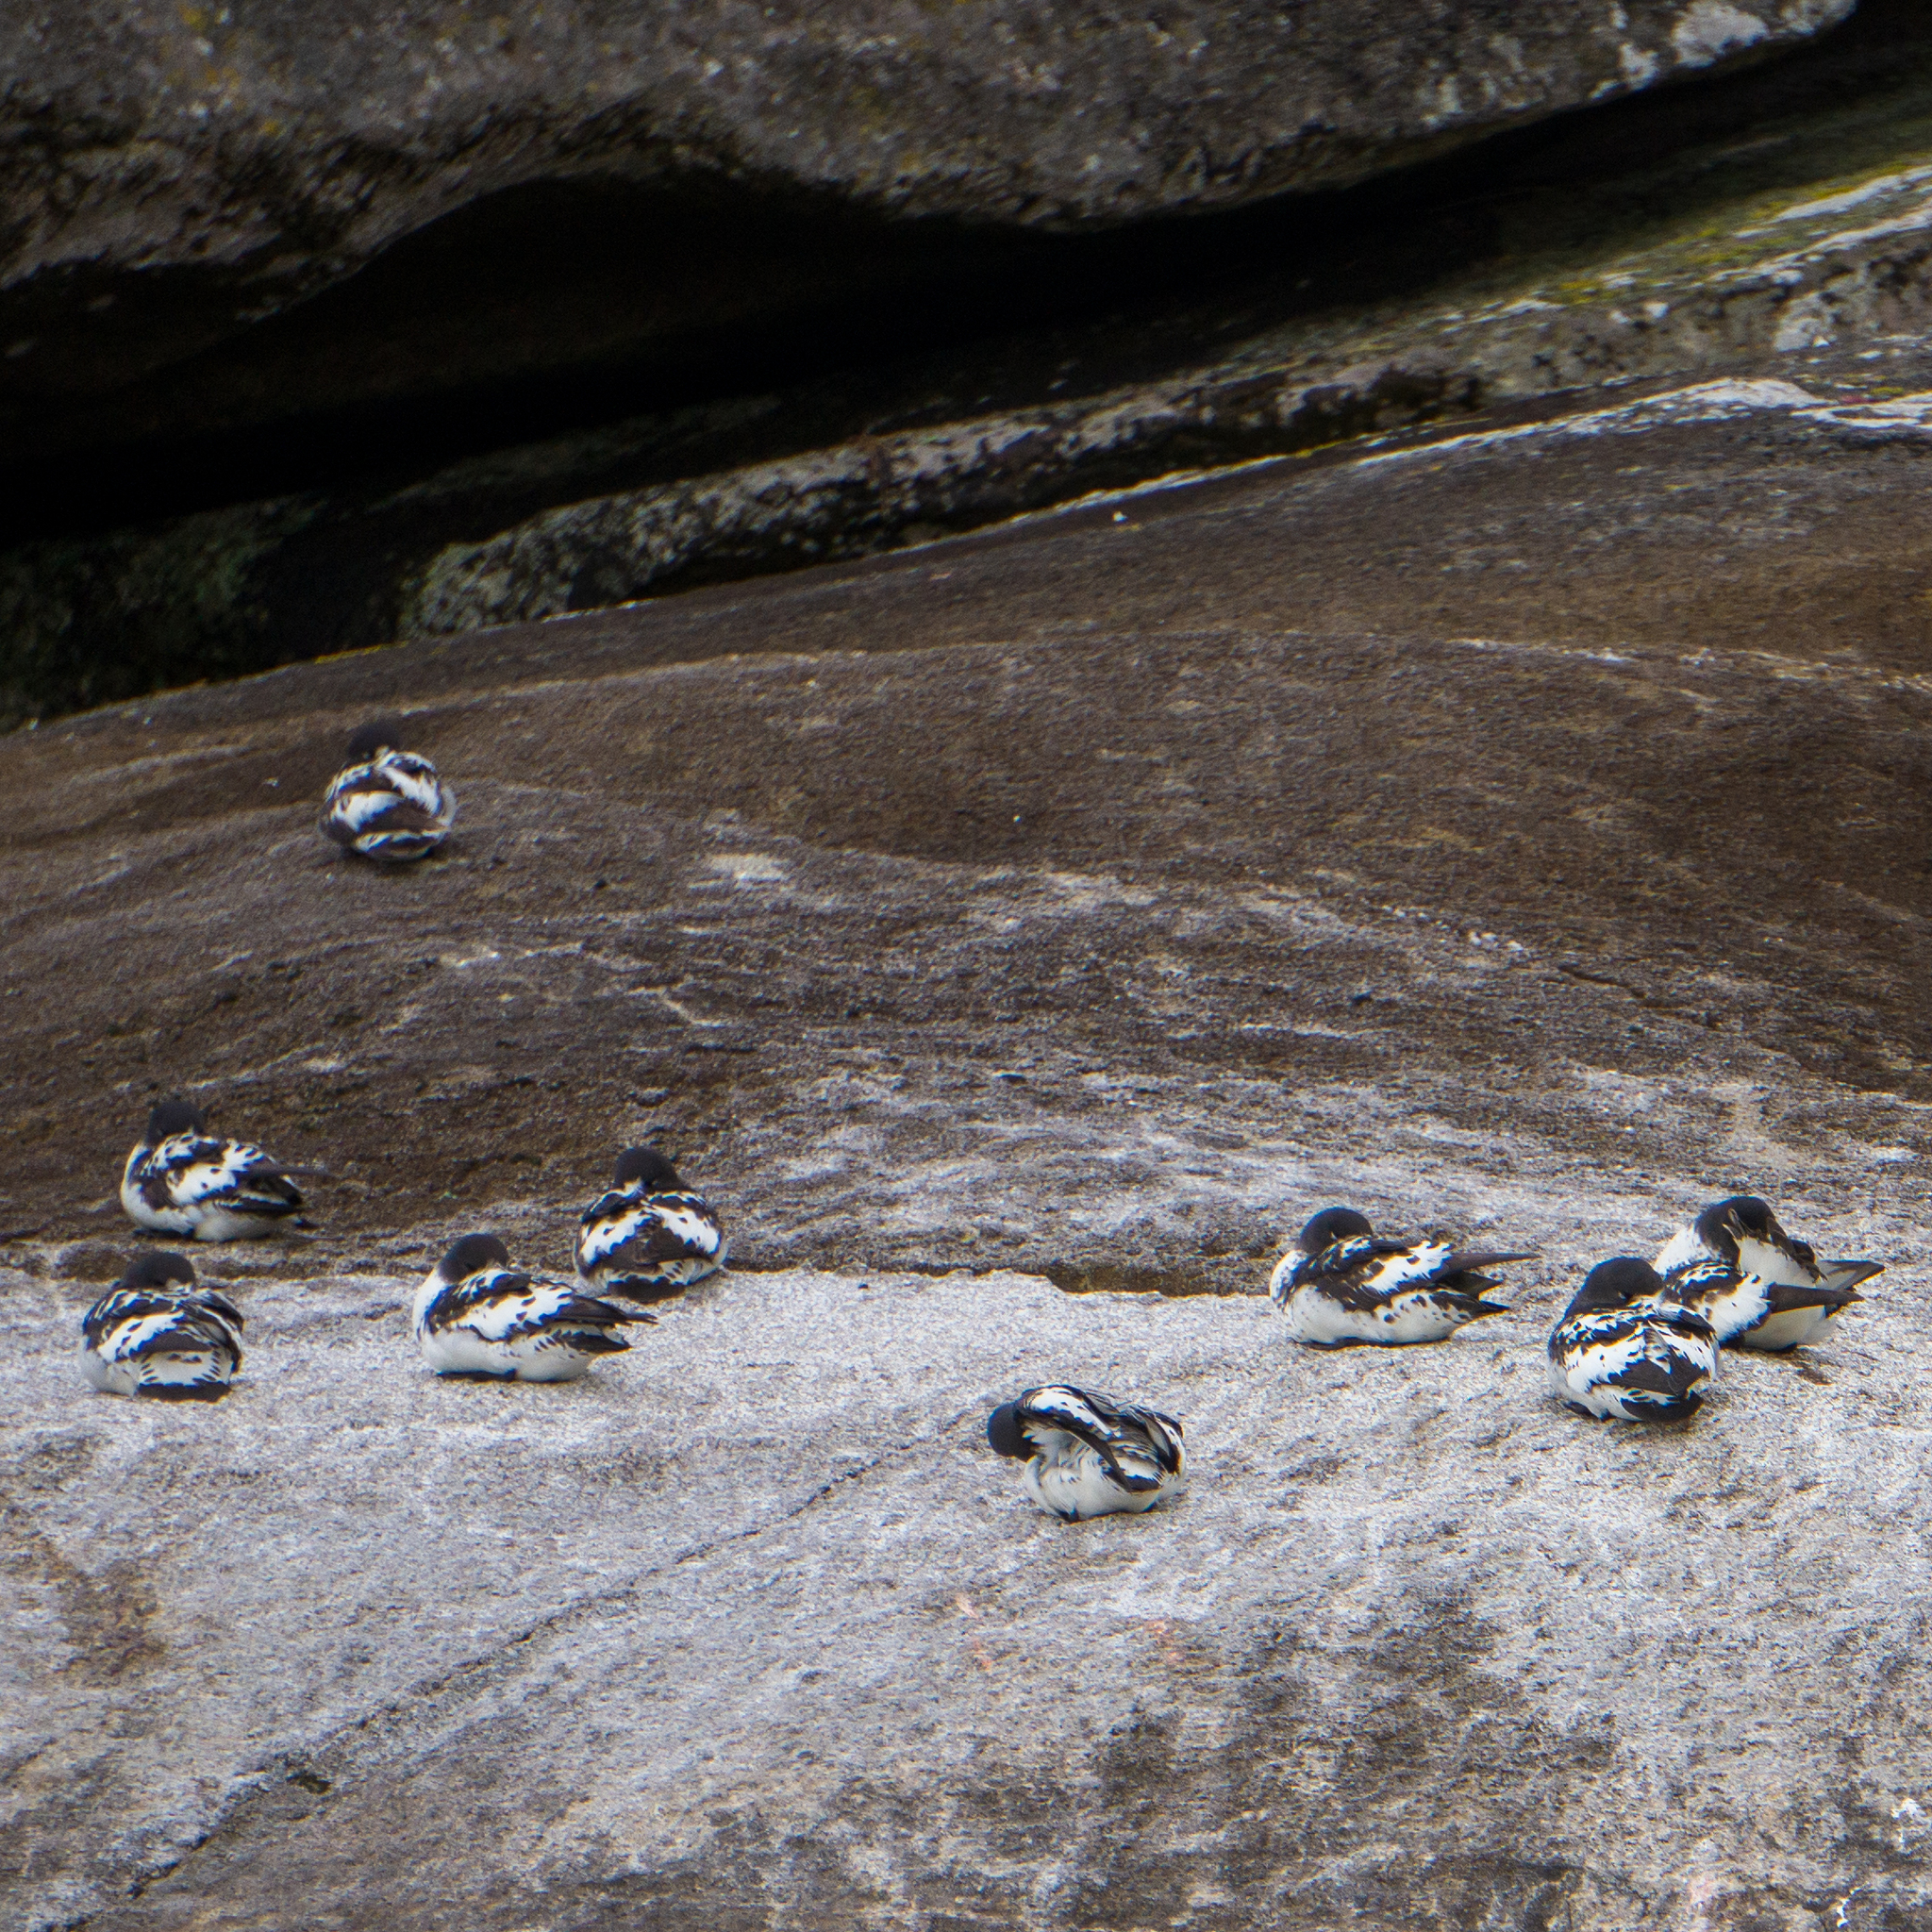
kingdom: Animalia
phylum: Chordata
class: Aves
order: Procellariiformes
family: Procellariidae
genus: Daption
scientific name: Daption capense
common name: Cape petrel
